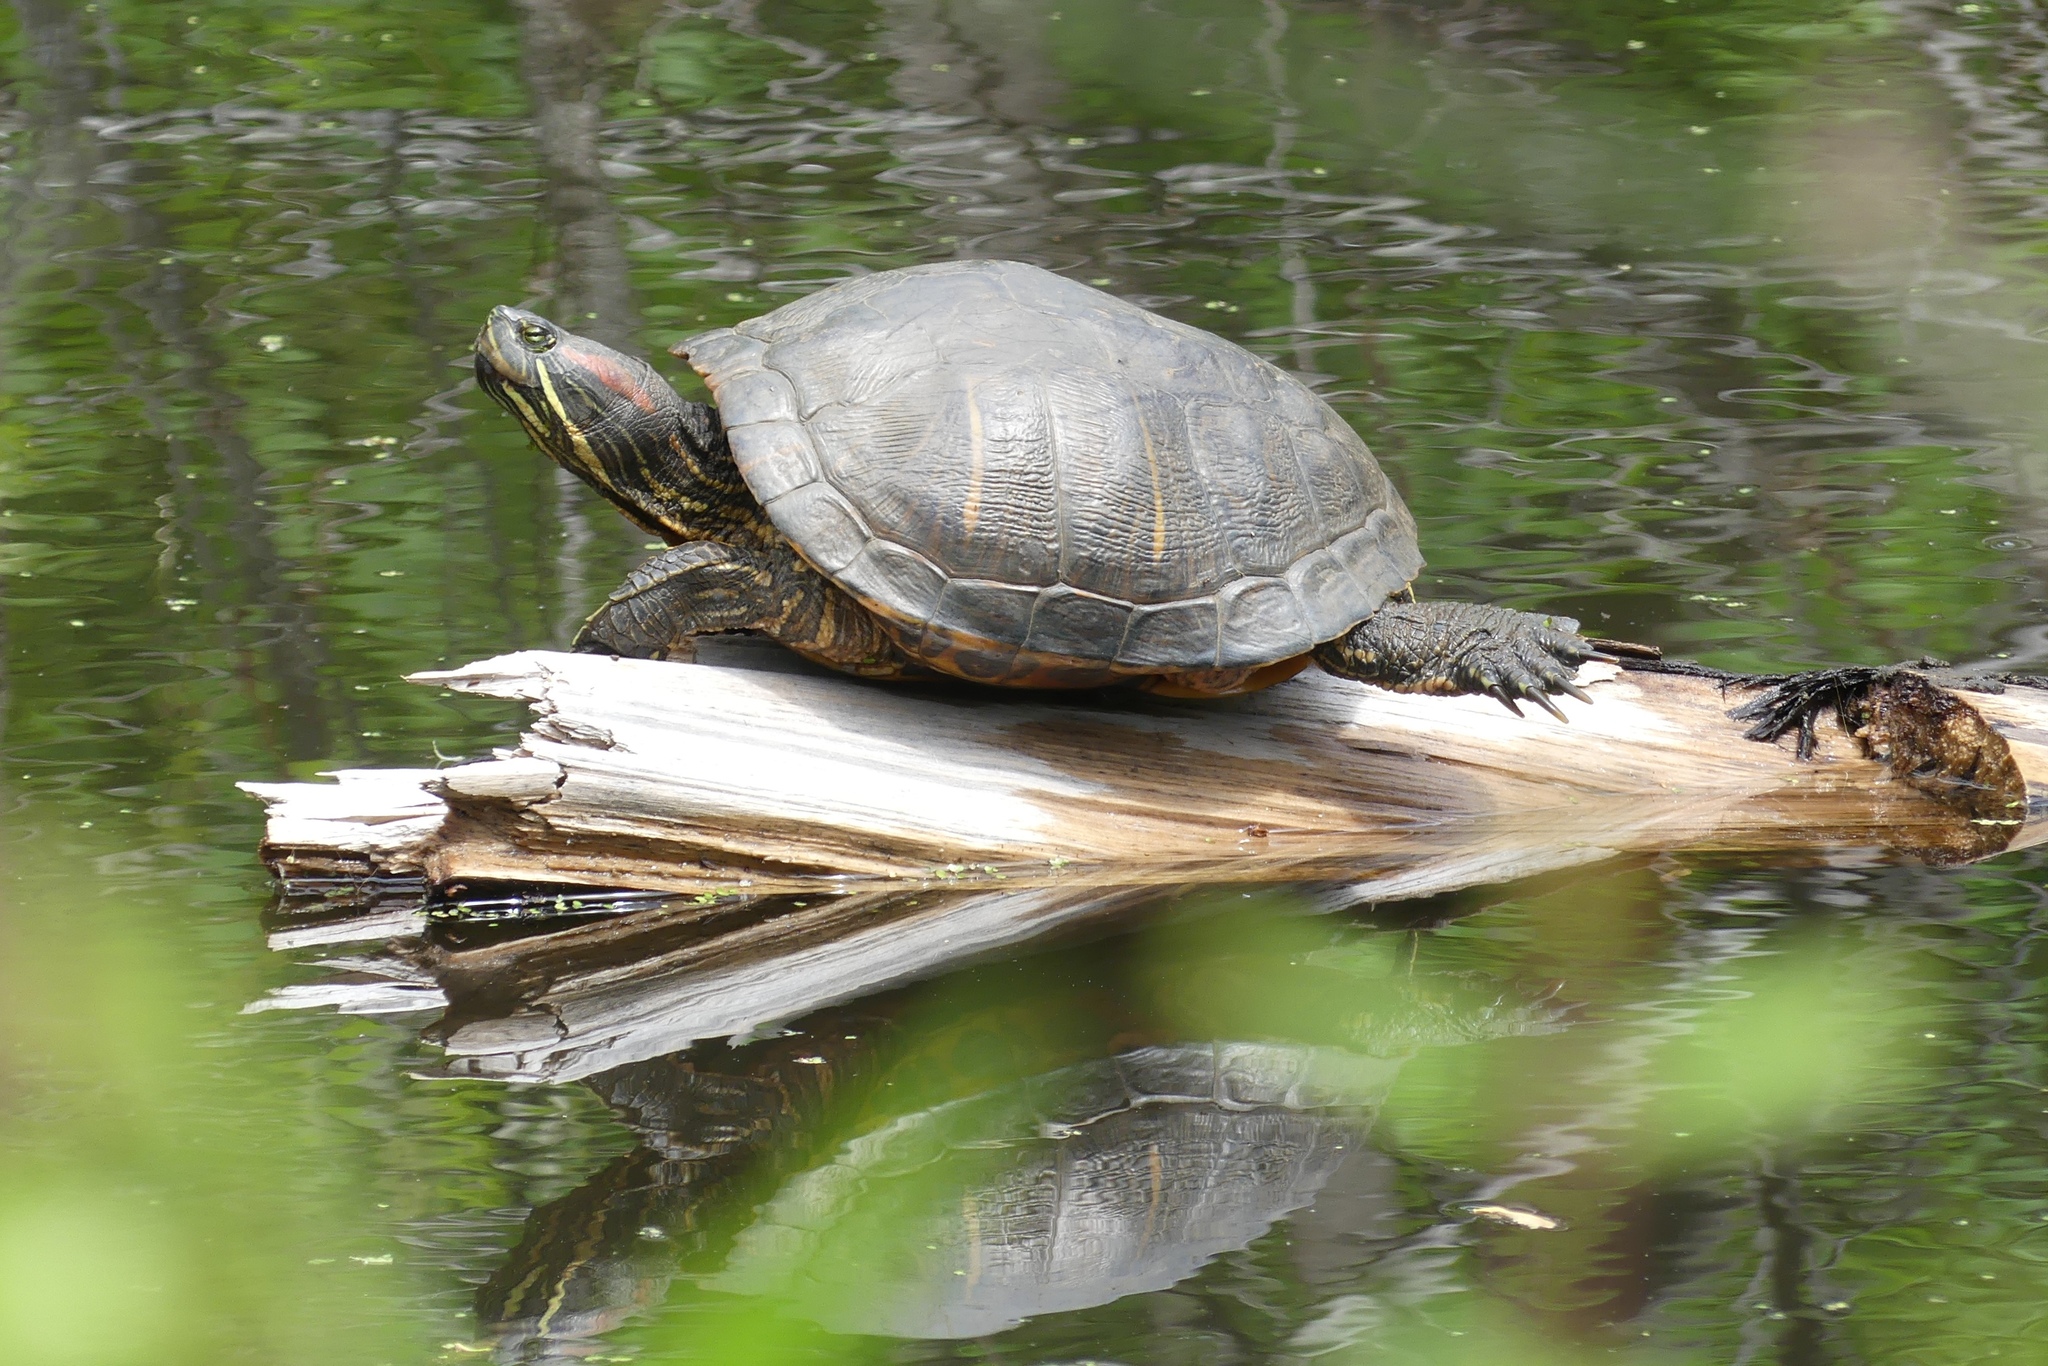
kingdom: Animalia
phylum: Chordata
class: Testudines
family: Emydidae
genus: Trachemys
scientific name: Trachemys scripta
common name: Slider
